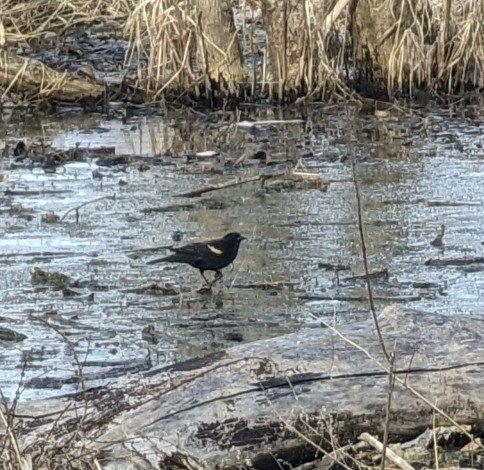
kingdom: Animalia
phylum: Chordata
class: Aves
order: Passeriformes
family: Icteridae
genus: Agelaius
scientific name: Agelaius phoeniceus
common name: Red-winged blackbird
